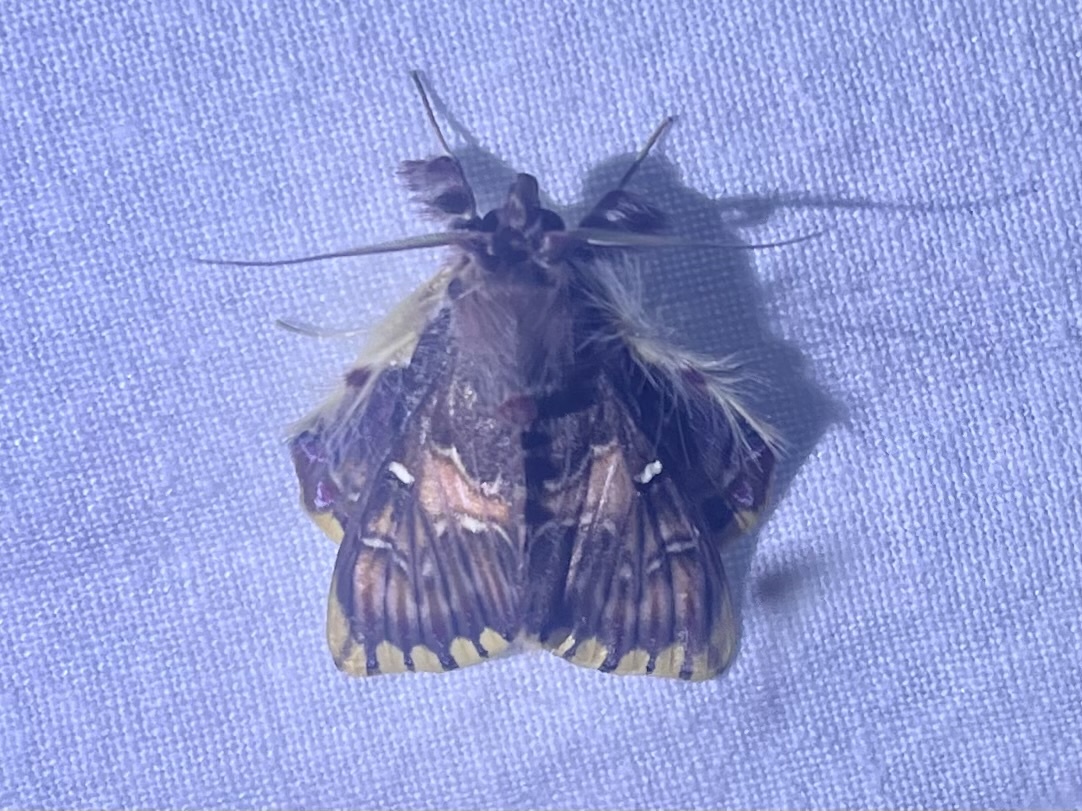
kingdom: Animalia
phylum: Arthropoda
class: Insecta
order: Lepidoptera
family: Erebidae
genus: Sosxetra
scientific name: Sosxetra grata
